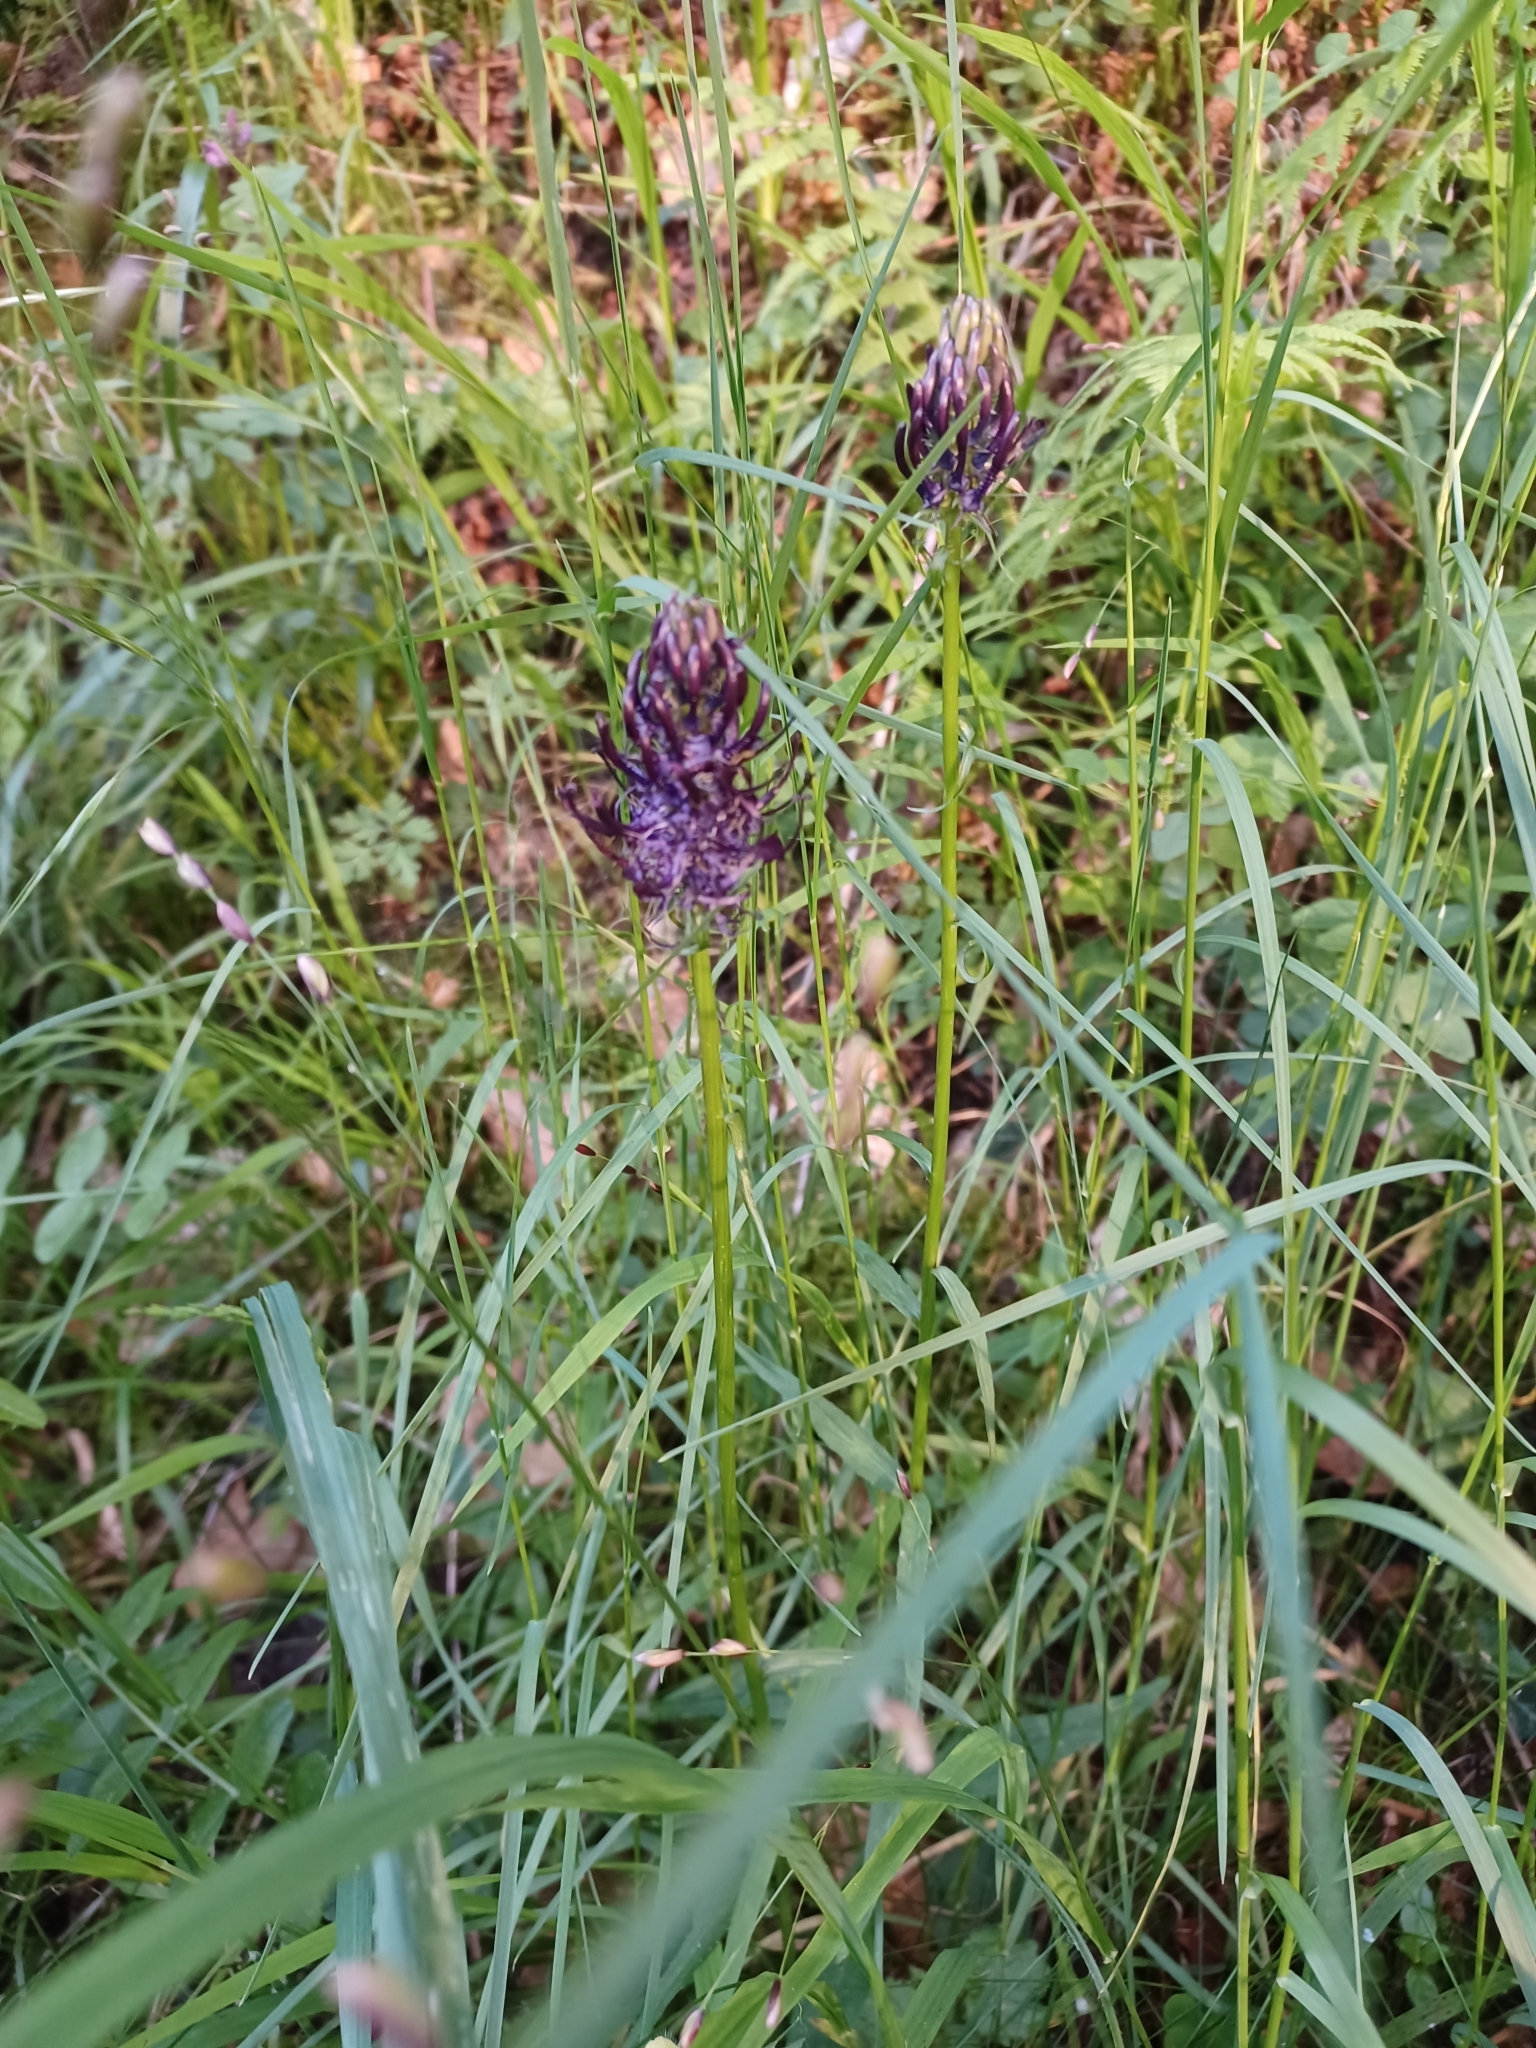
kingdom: Plantae
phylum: Tracheophyta
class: Magnoliopsida
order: Asterales
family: Campanulaceae
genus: Phyteuma
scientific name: Phyteuma nigrum
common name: Black rampion
